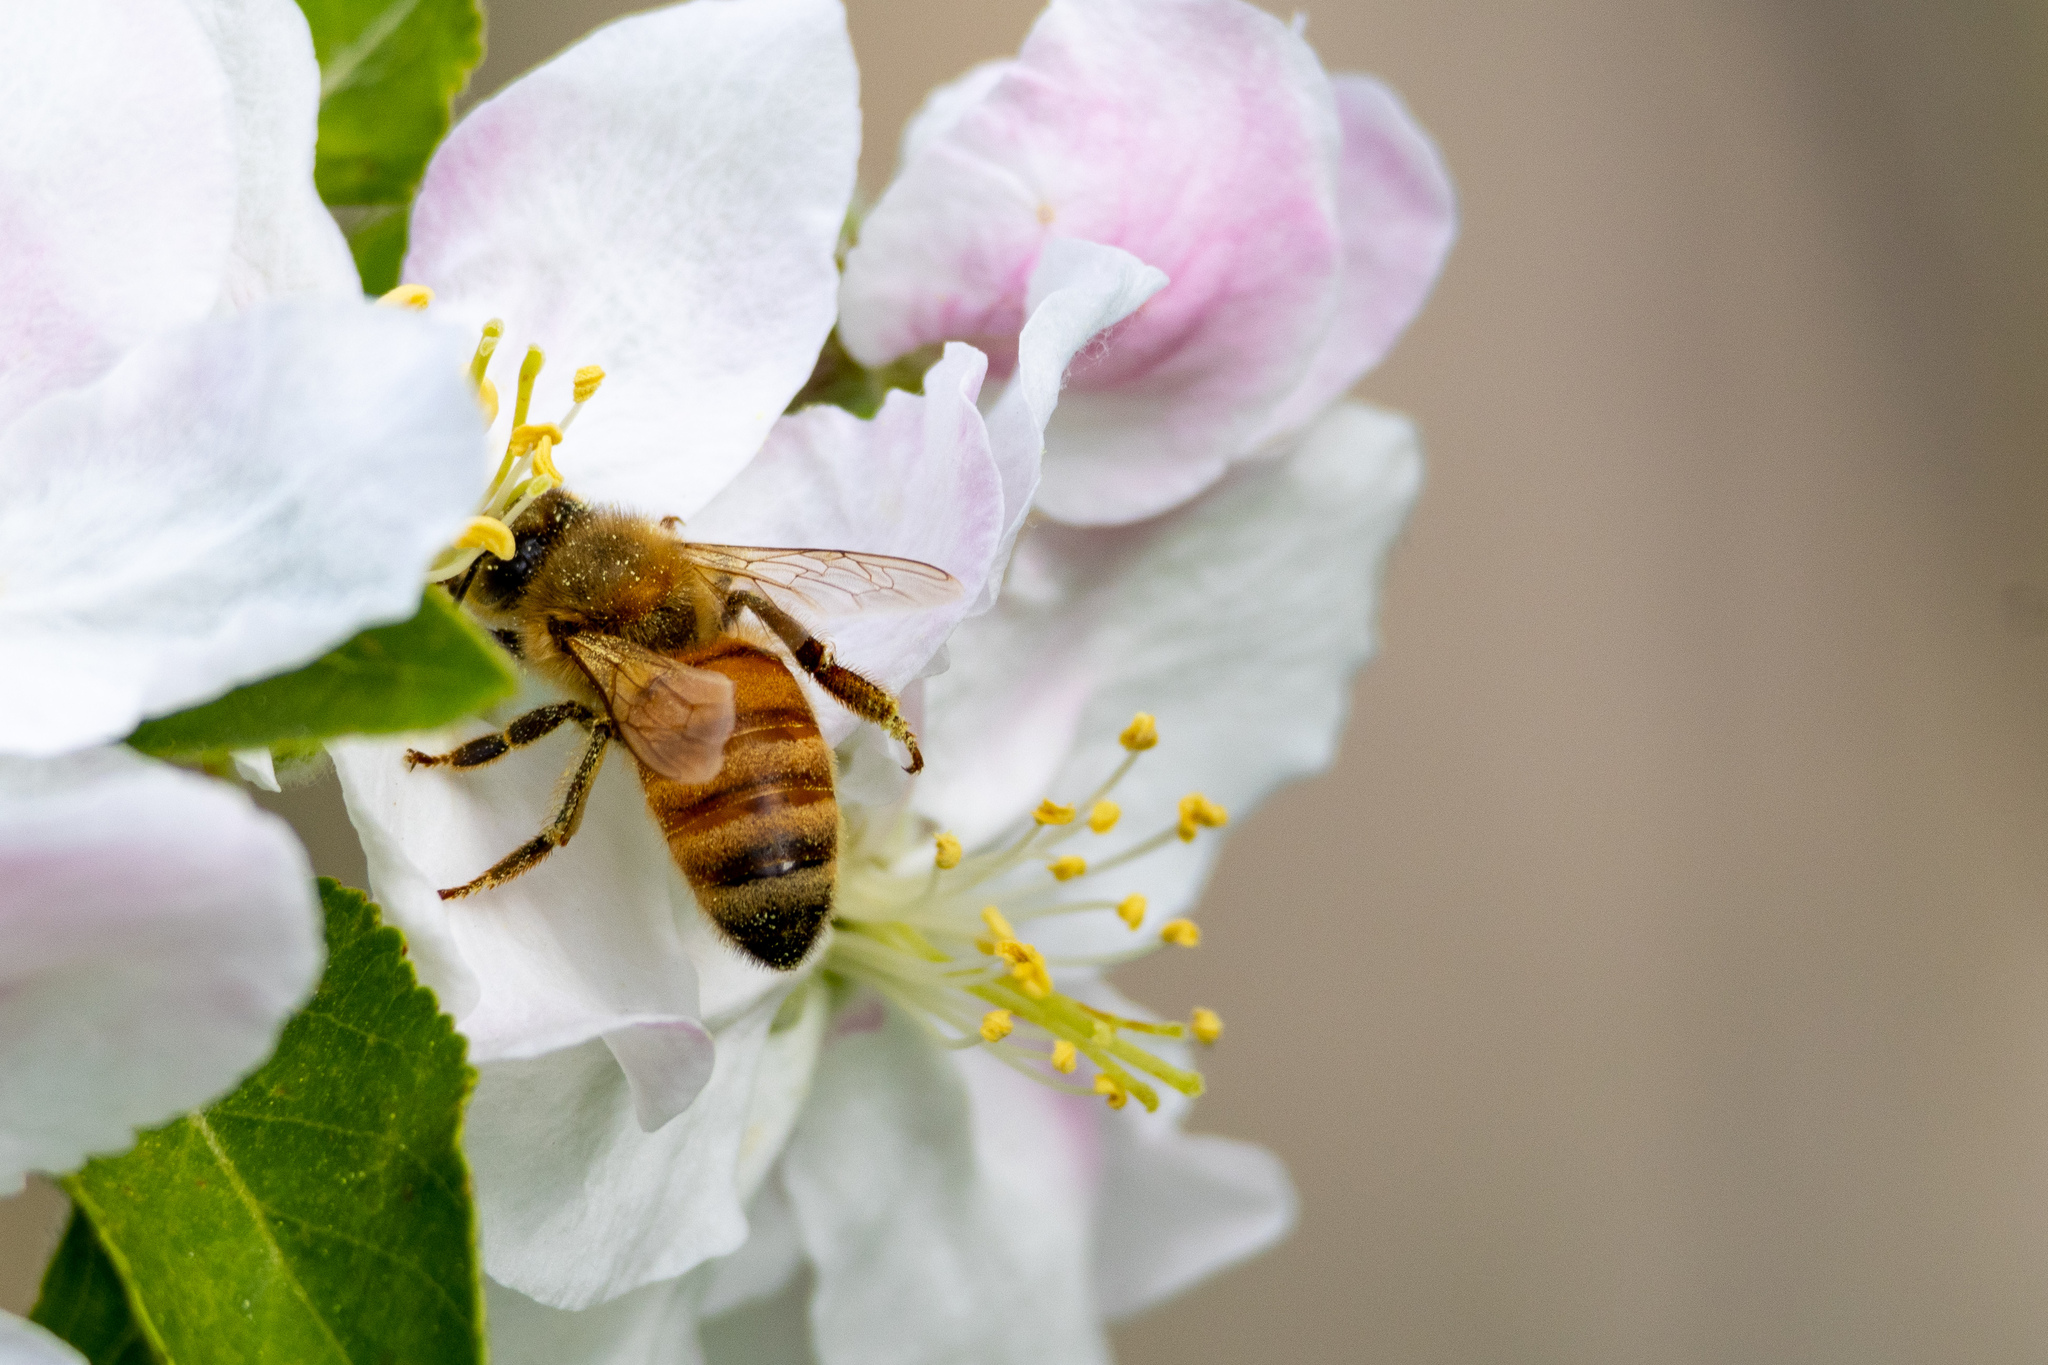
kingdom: Animalia
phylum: Arthropoda
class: Insecta
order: Hymenoptera
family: Apidae
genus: Apis
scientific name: Apis mellifera
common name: Honey bee
